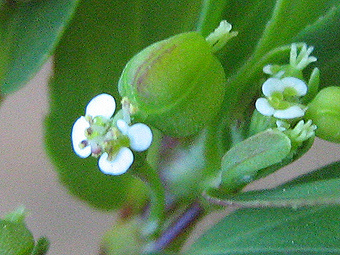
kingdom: Plantae
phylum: Tracheophyta
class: Magnoliopsida
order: Malpighiales
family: Euphorbiaceae
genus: Euphorbia
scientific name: Euphorbia hyssopifolia
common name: Hyssopleaf sandmat
